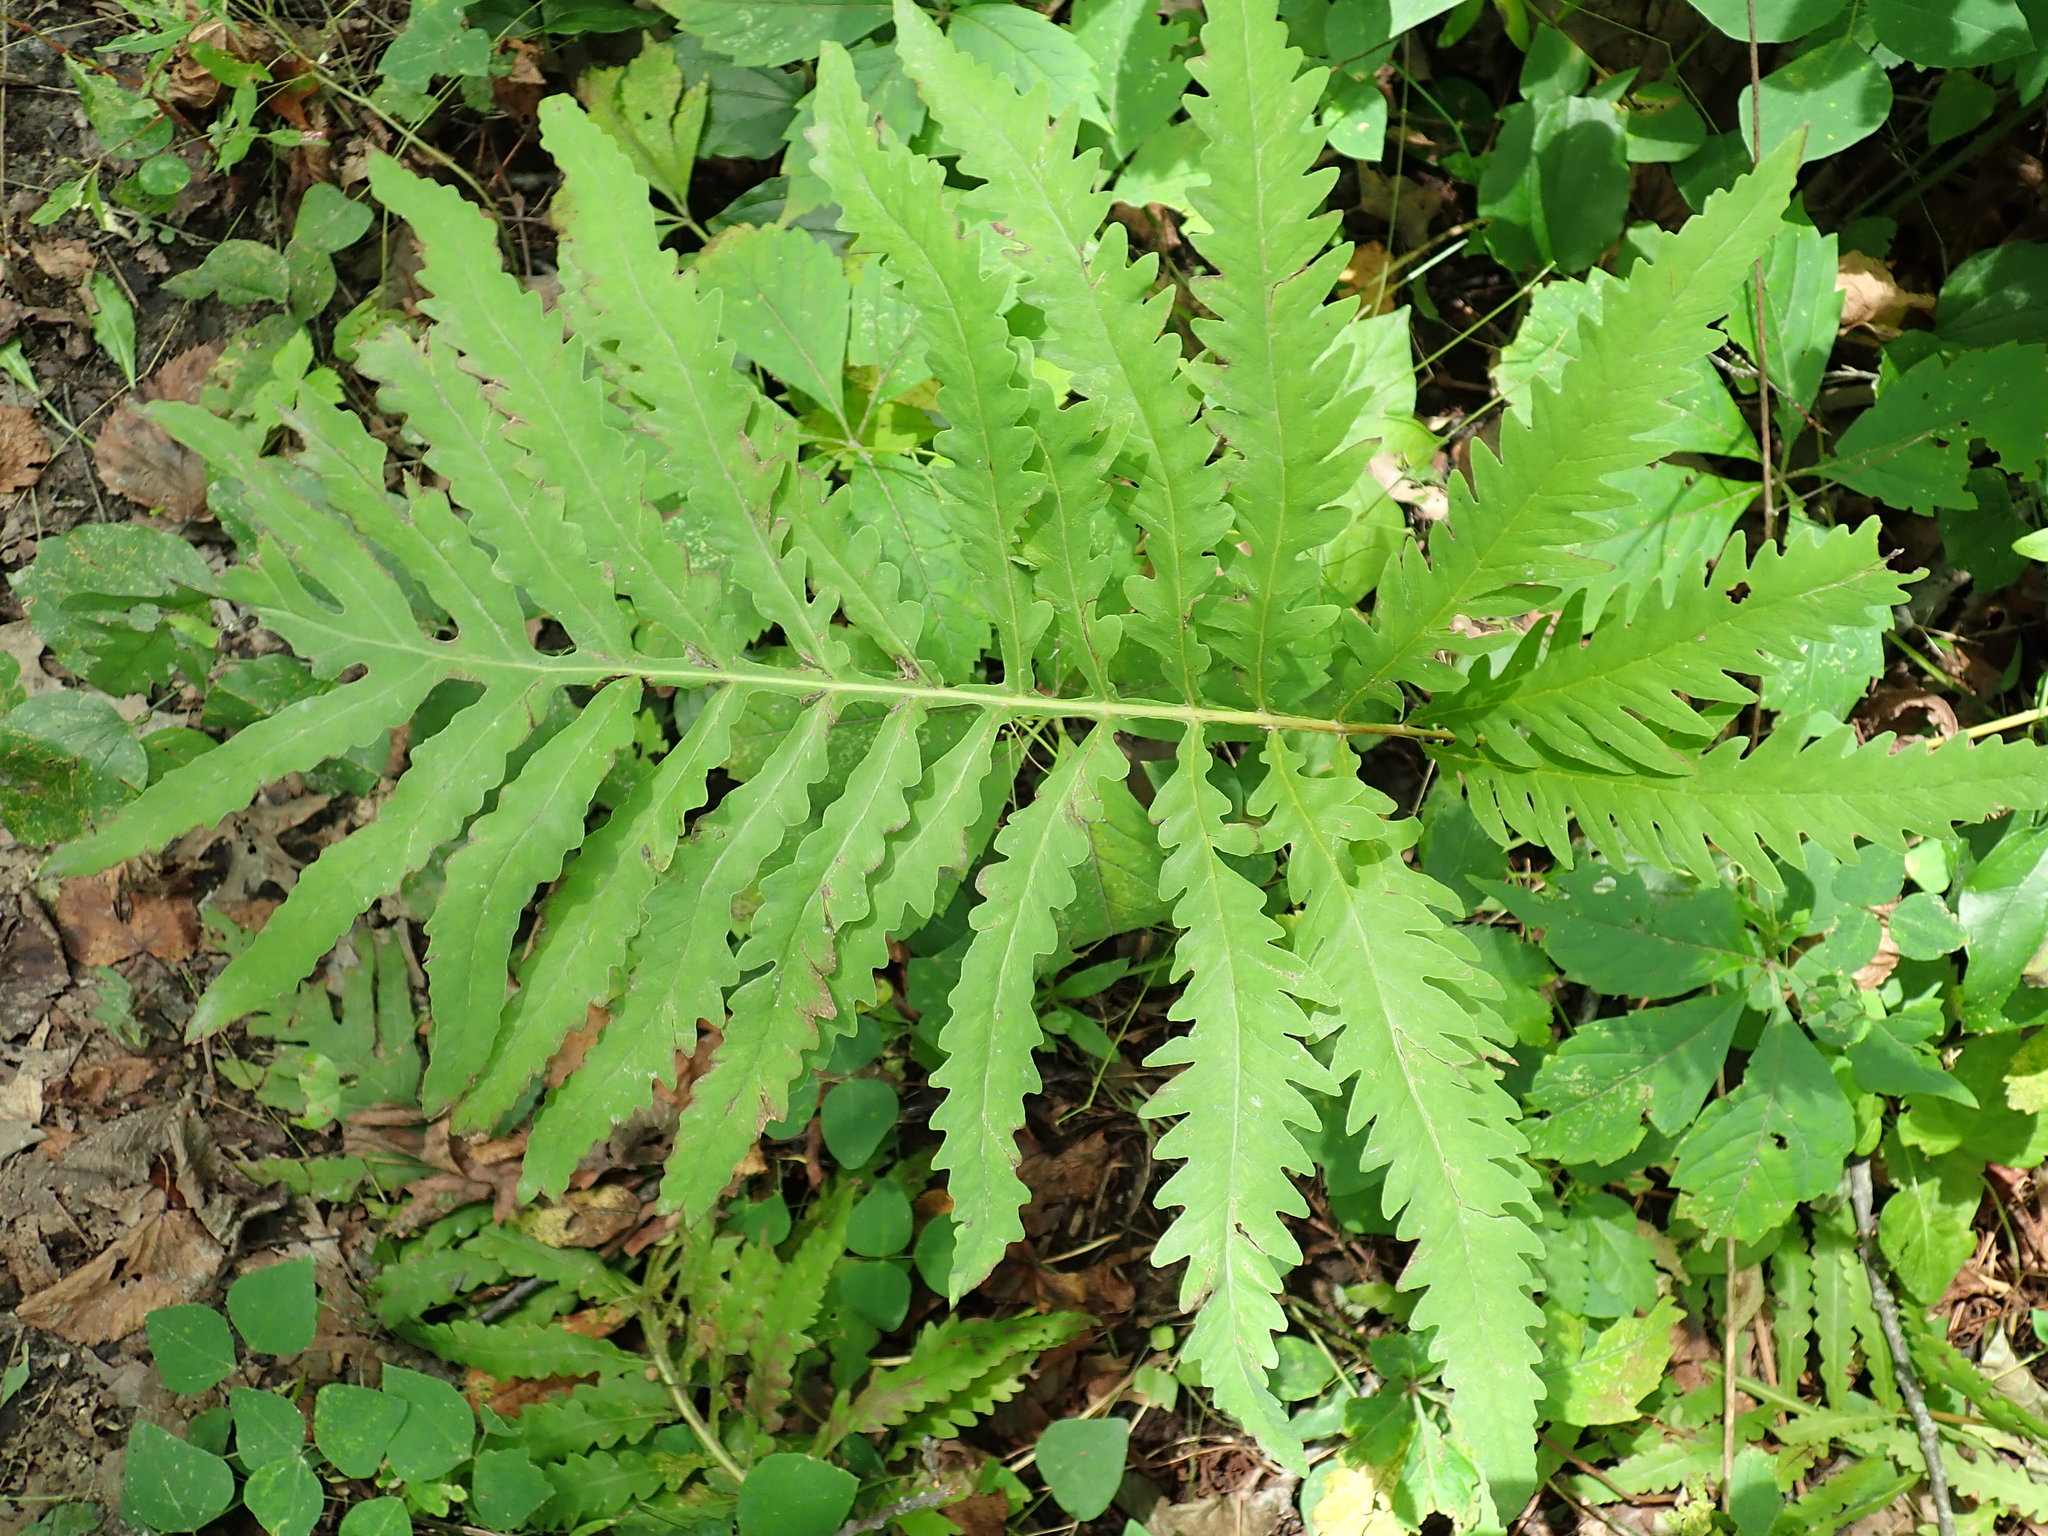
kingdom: Plantae
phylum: Tracheophyta
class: Polypodiopsida
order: Polypodiales
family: Onocleaceae
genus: Onoclea
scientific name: Onoclea sensibilis
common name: Sensitive fern
